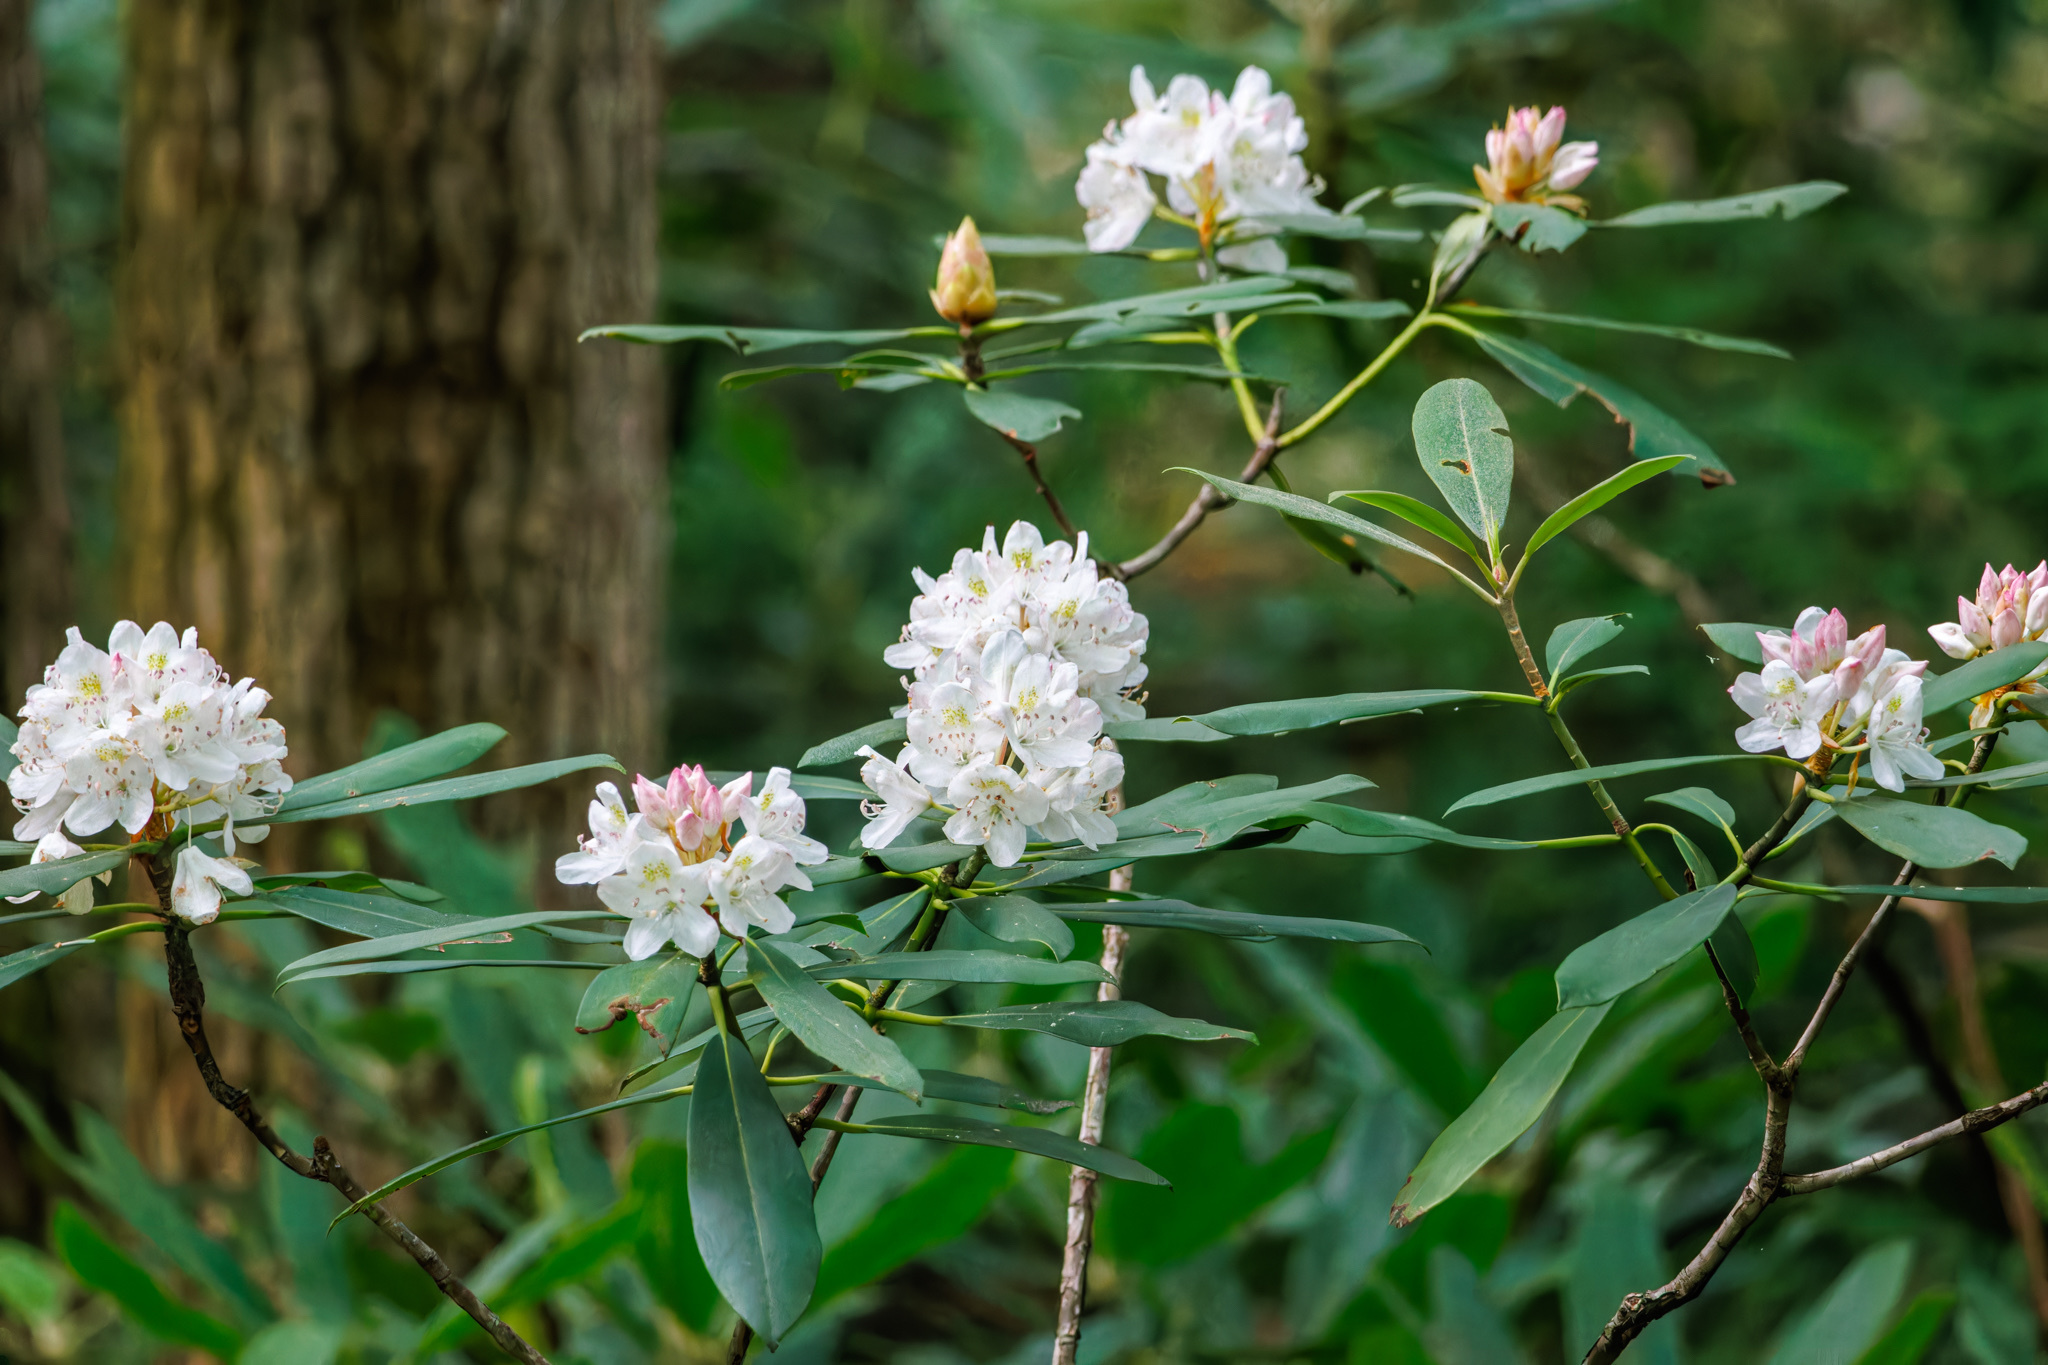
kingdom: Plantae
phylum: Tracheophyta
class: Magnoliopsida
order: Ericales
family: Ericaceae
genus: Rhododendron
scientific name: Rhododendron maximum
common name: Great rhododendron
